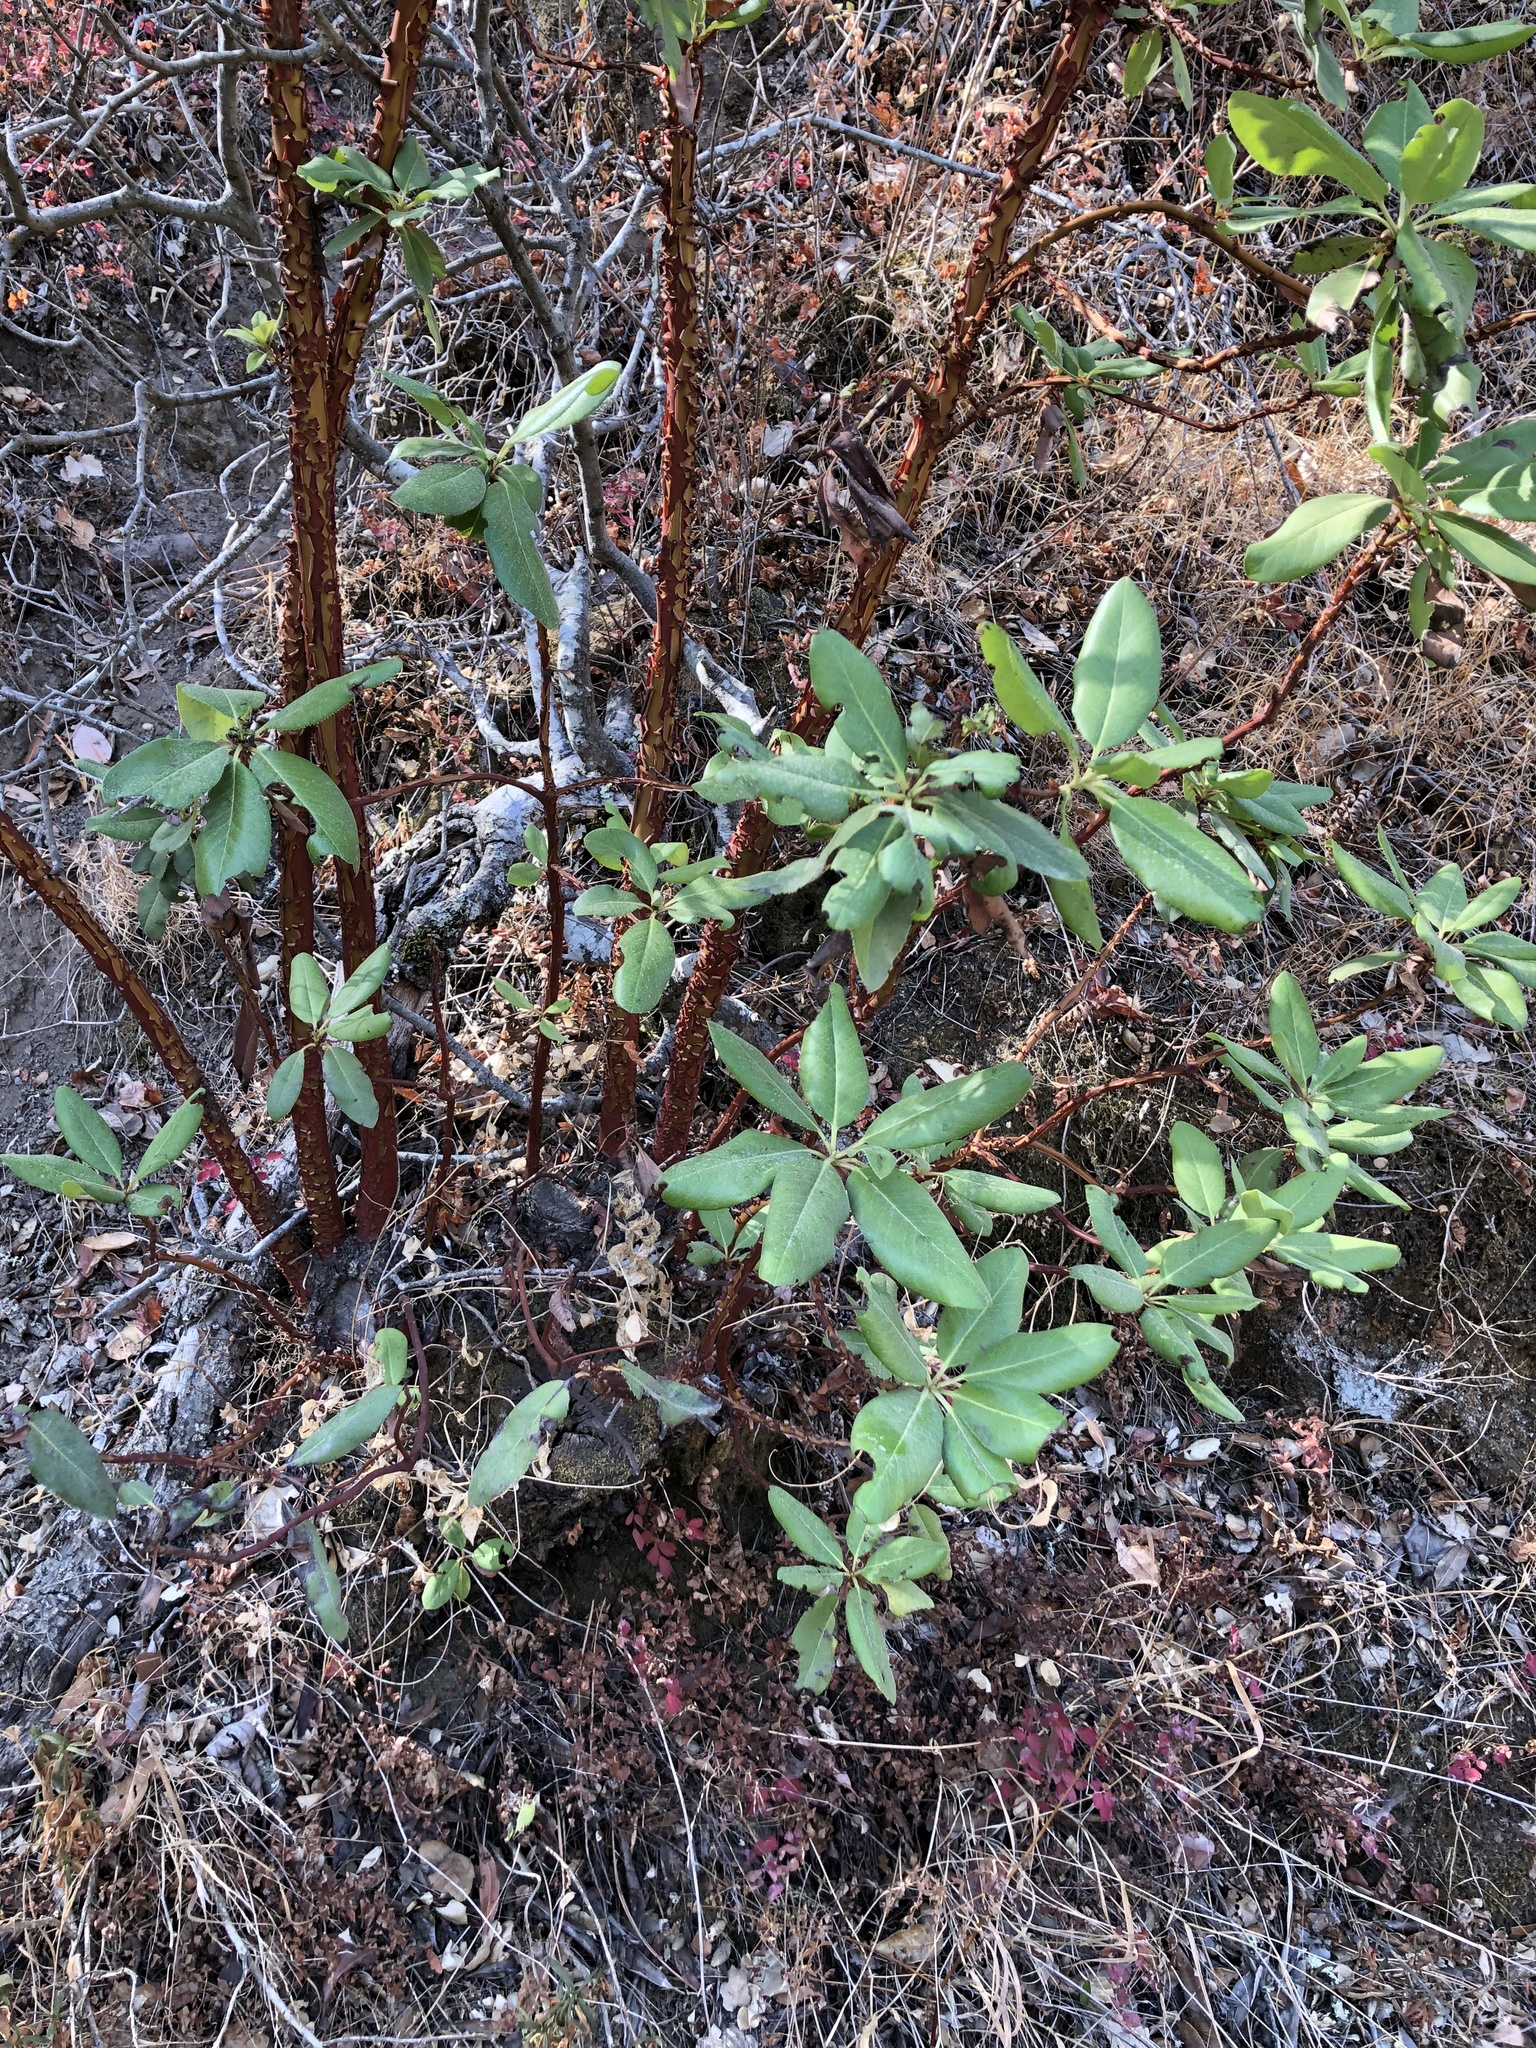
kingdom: Plantae
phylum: Tracheophyta
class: Magnoliopsida
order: Ericales
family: Ericaceae
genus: Arbutus
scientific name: Arbutus menziesii
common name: Pacific madrone
